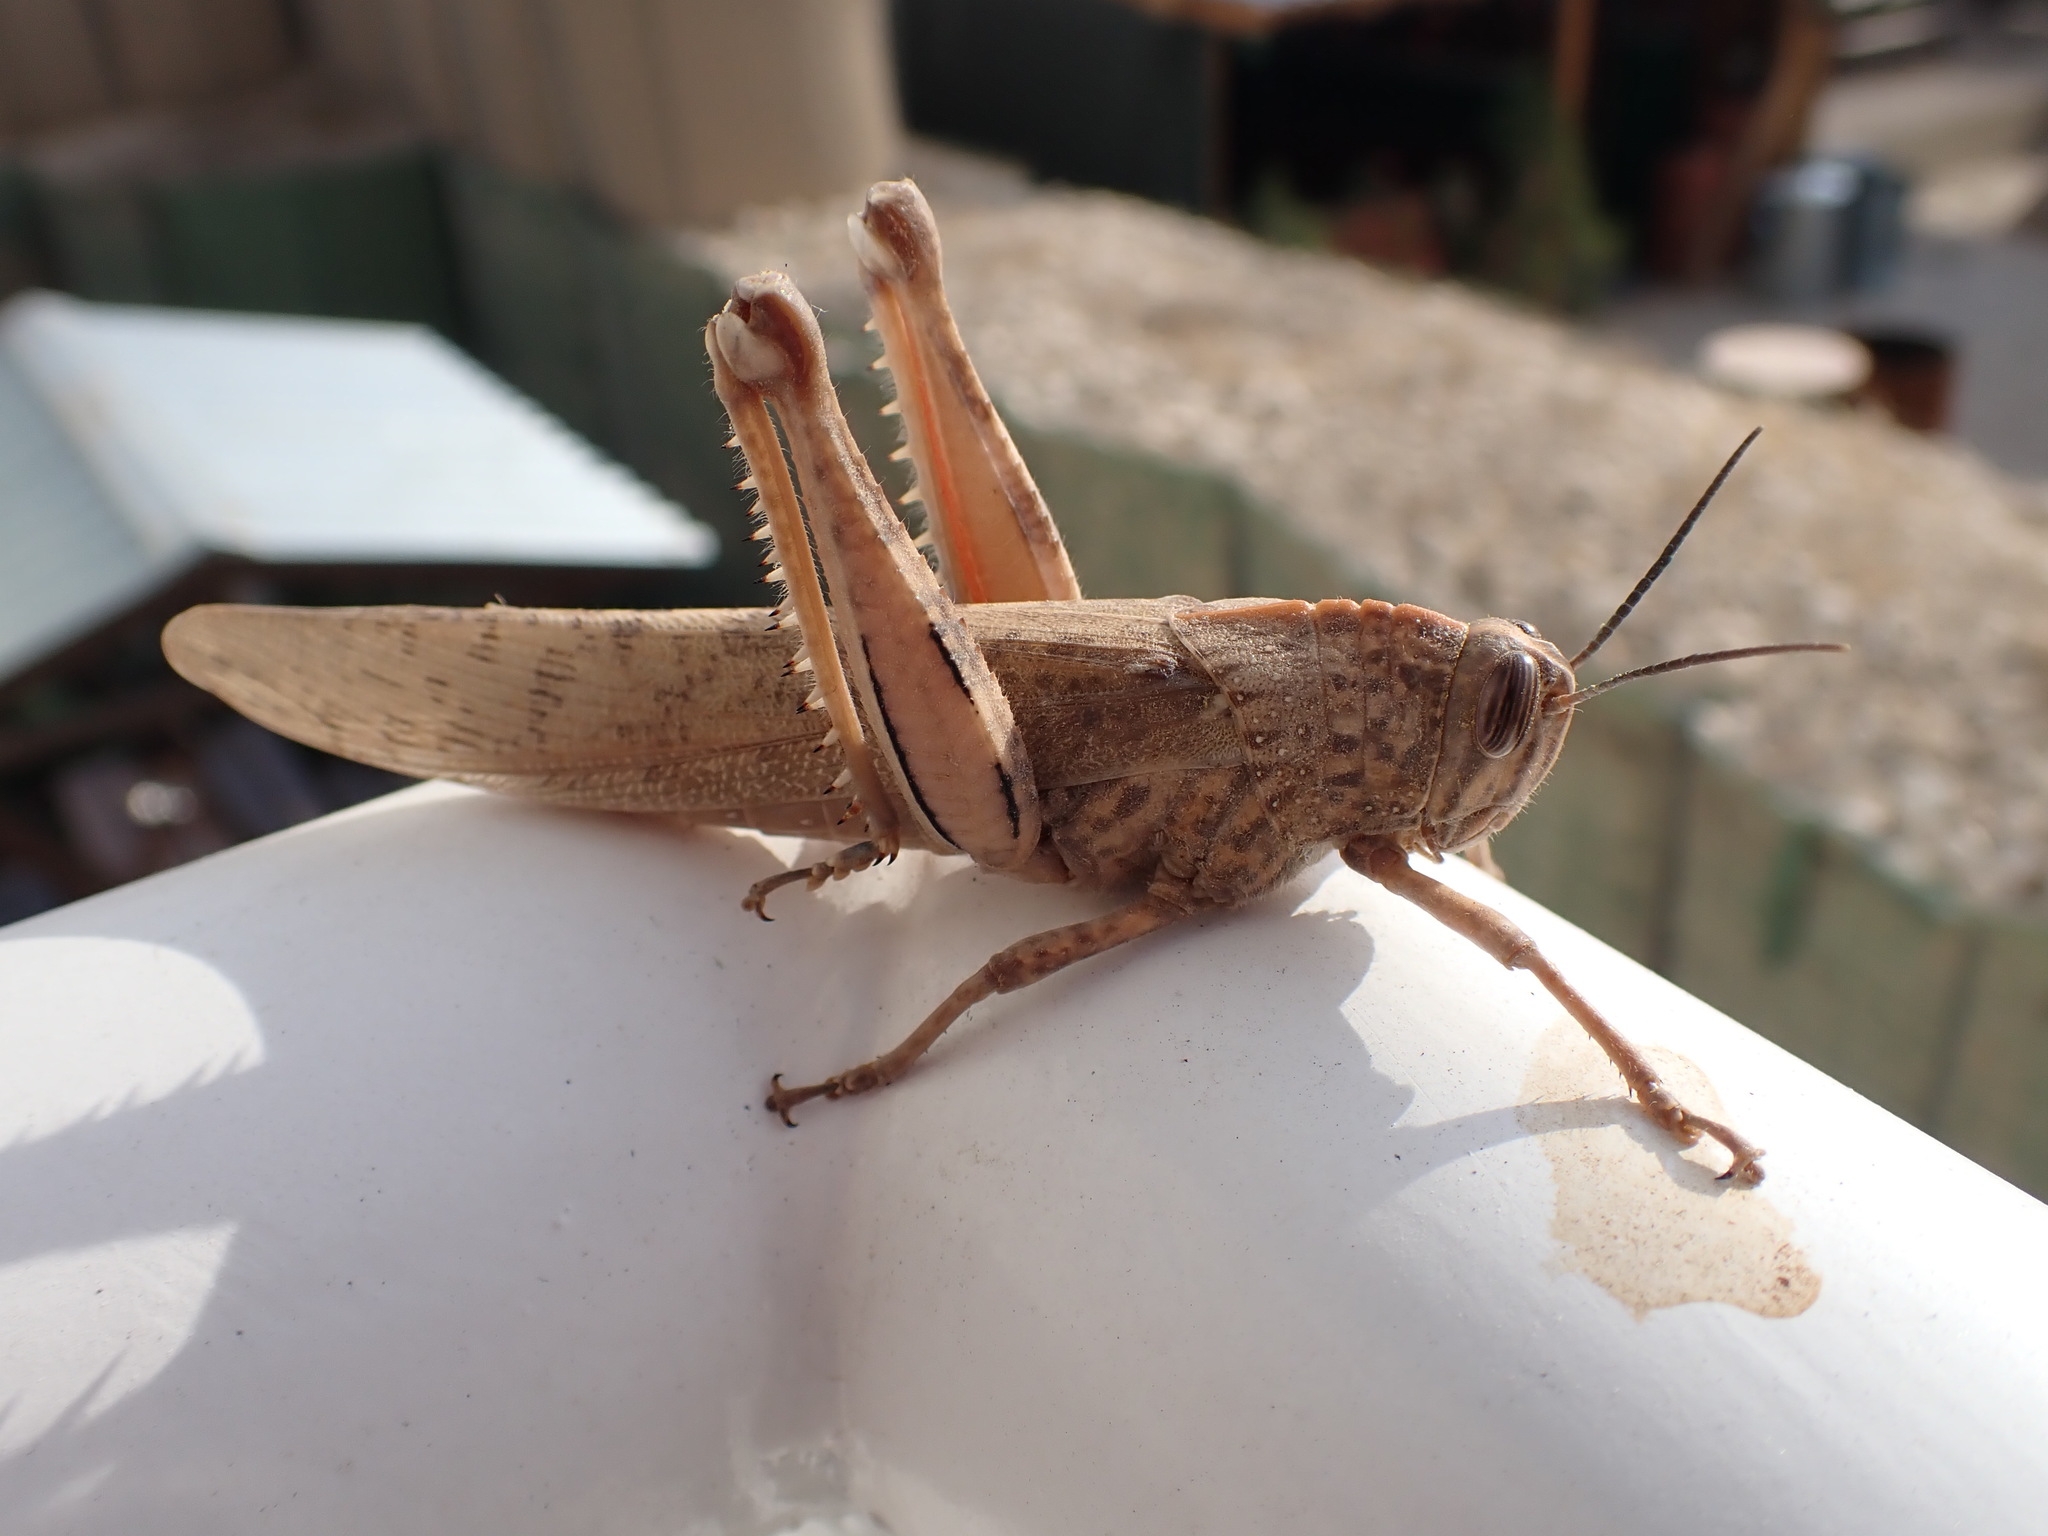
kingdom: Animalia
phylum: Arthropoda
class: Insecta
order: Orthoptera
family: Acrididae
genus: Anacridium
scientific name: Anacridium aegyptium
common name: Egyptian grasshopper
